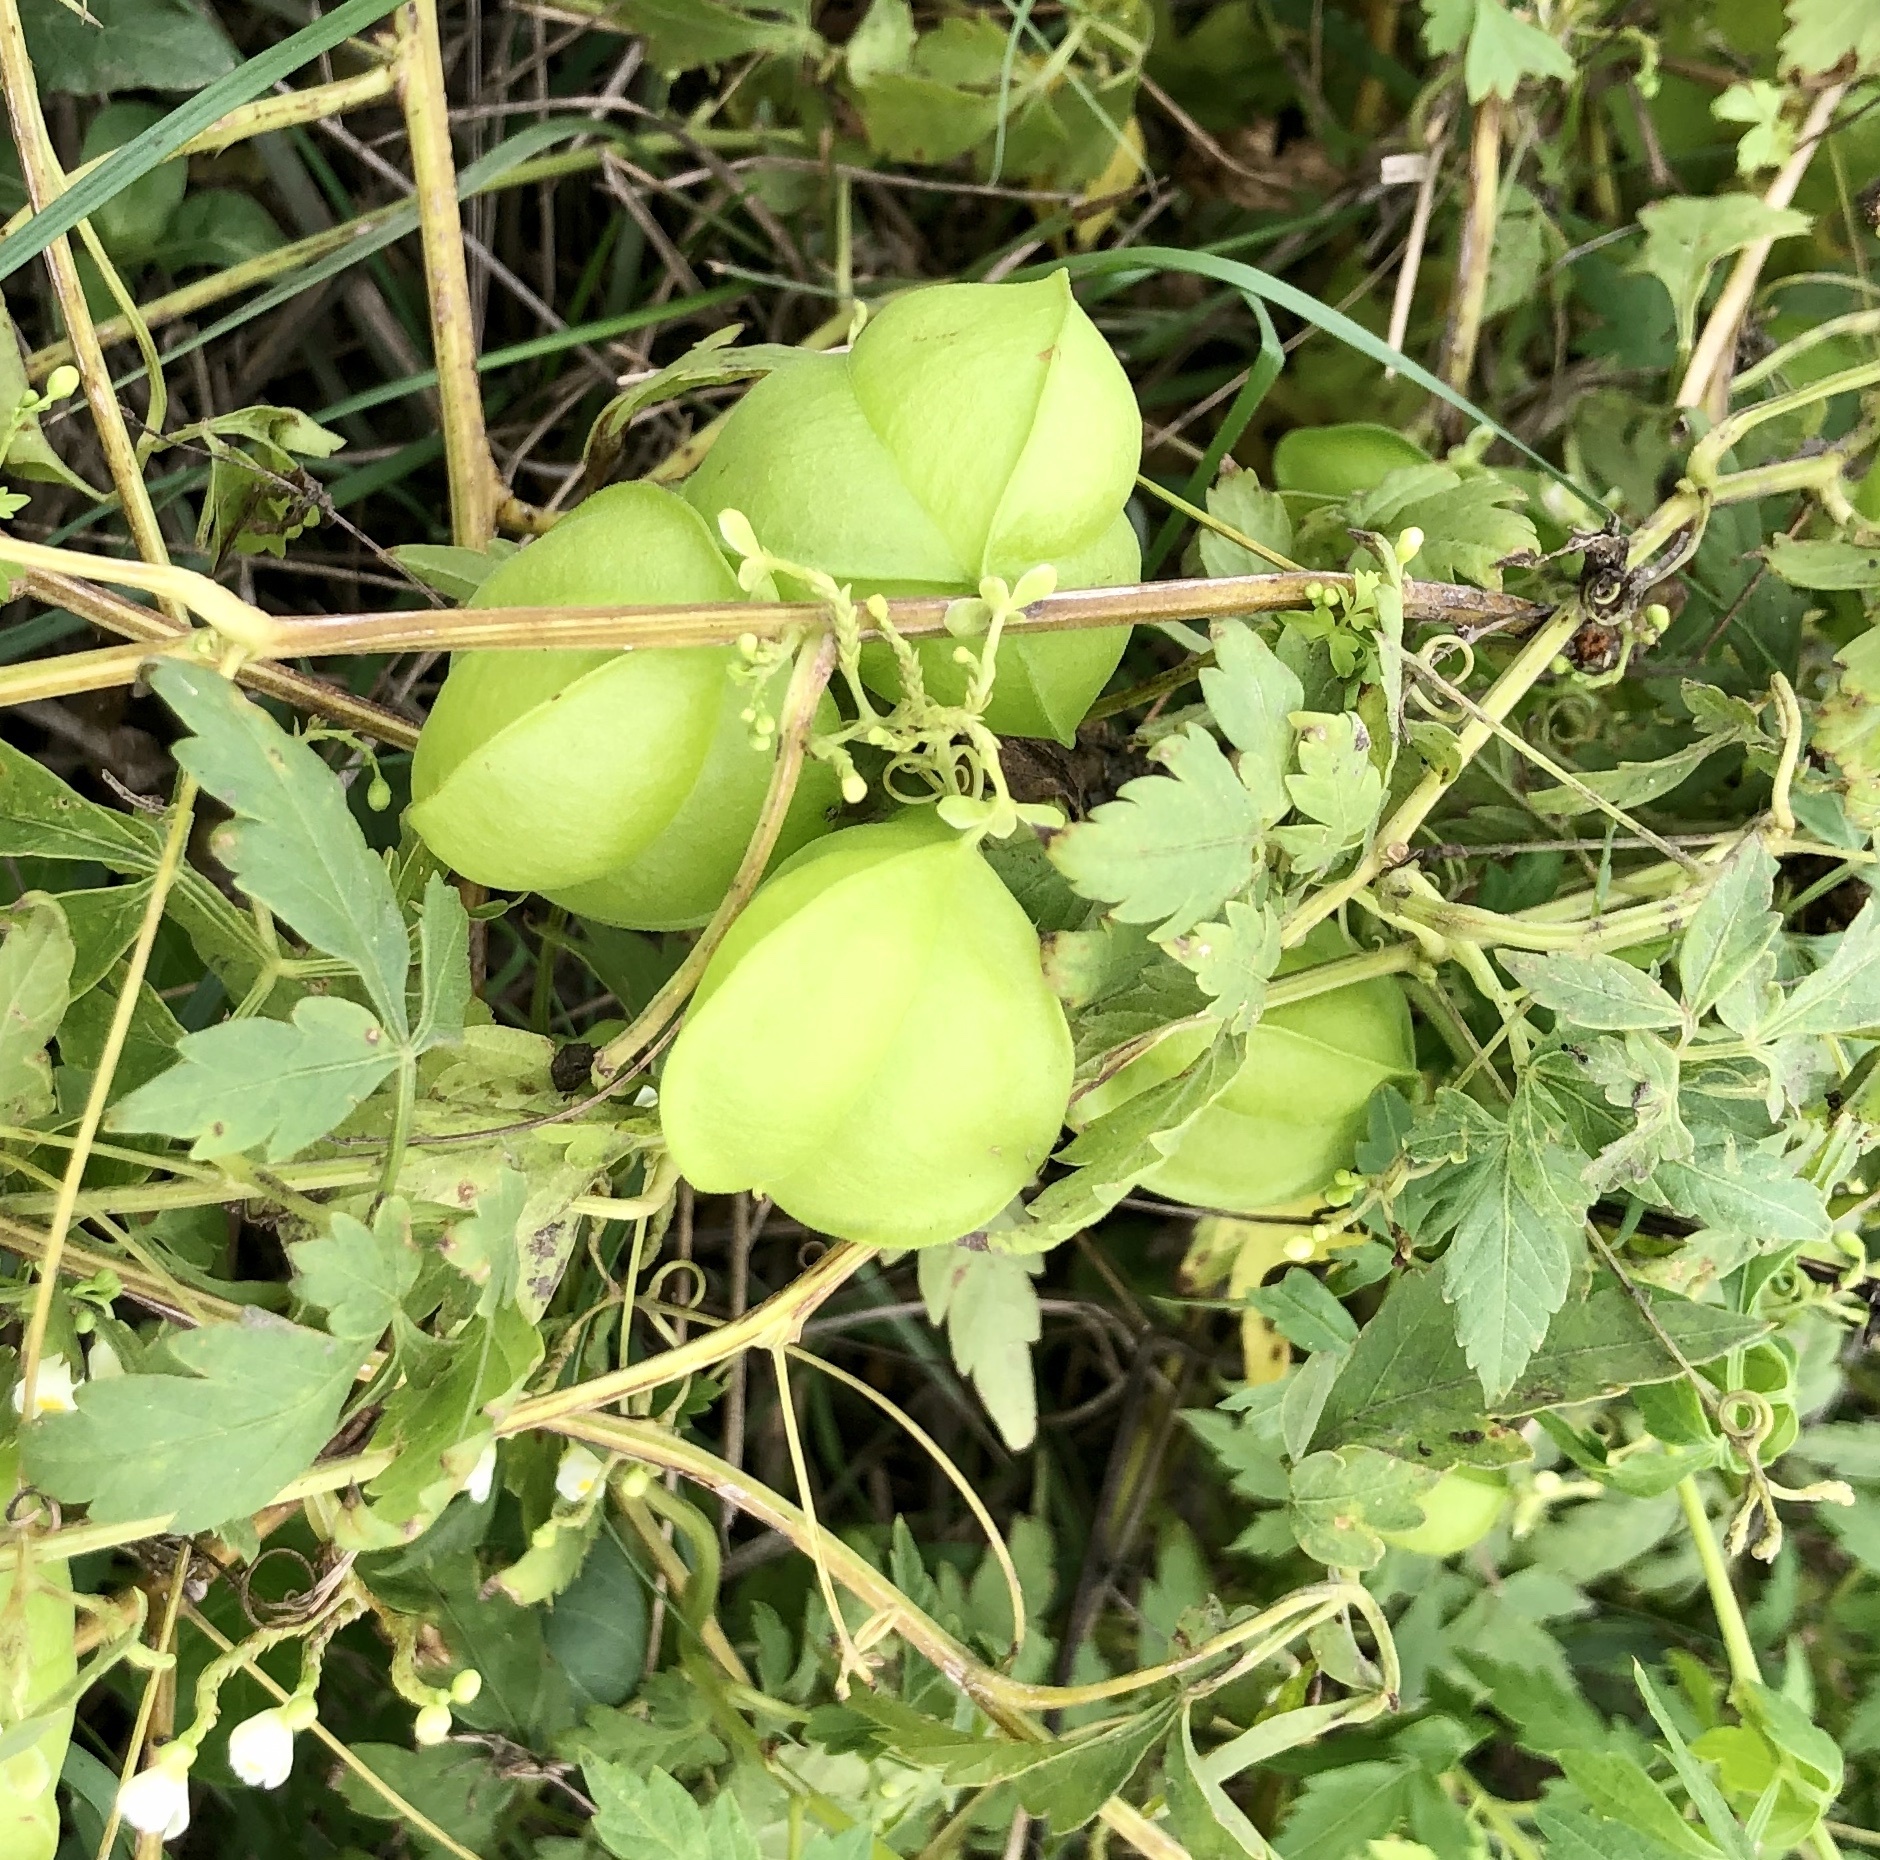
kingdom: Plantae
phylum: Tracheophyta
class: Magnoliopsida
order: Sapindales
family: Sapindaceae
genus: Cardiospermum
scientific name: Cardiospermum halicacabum
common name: Balloon vine
